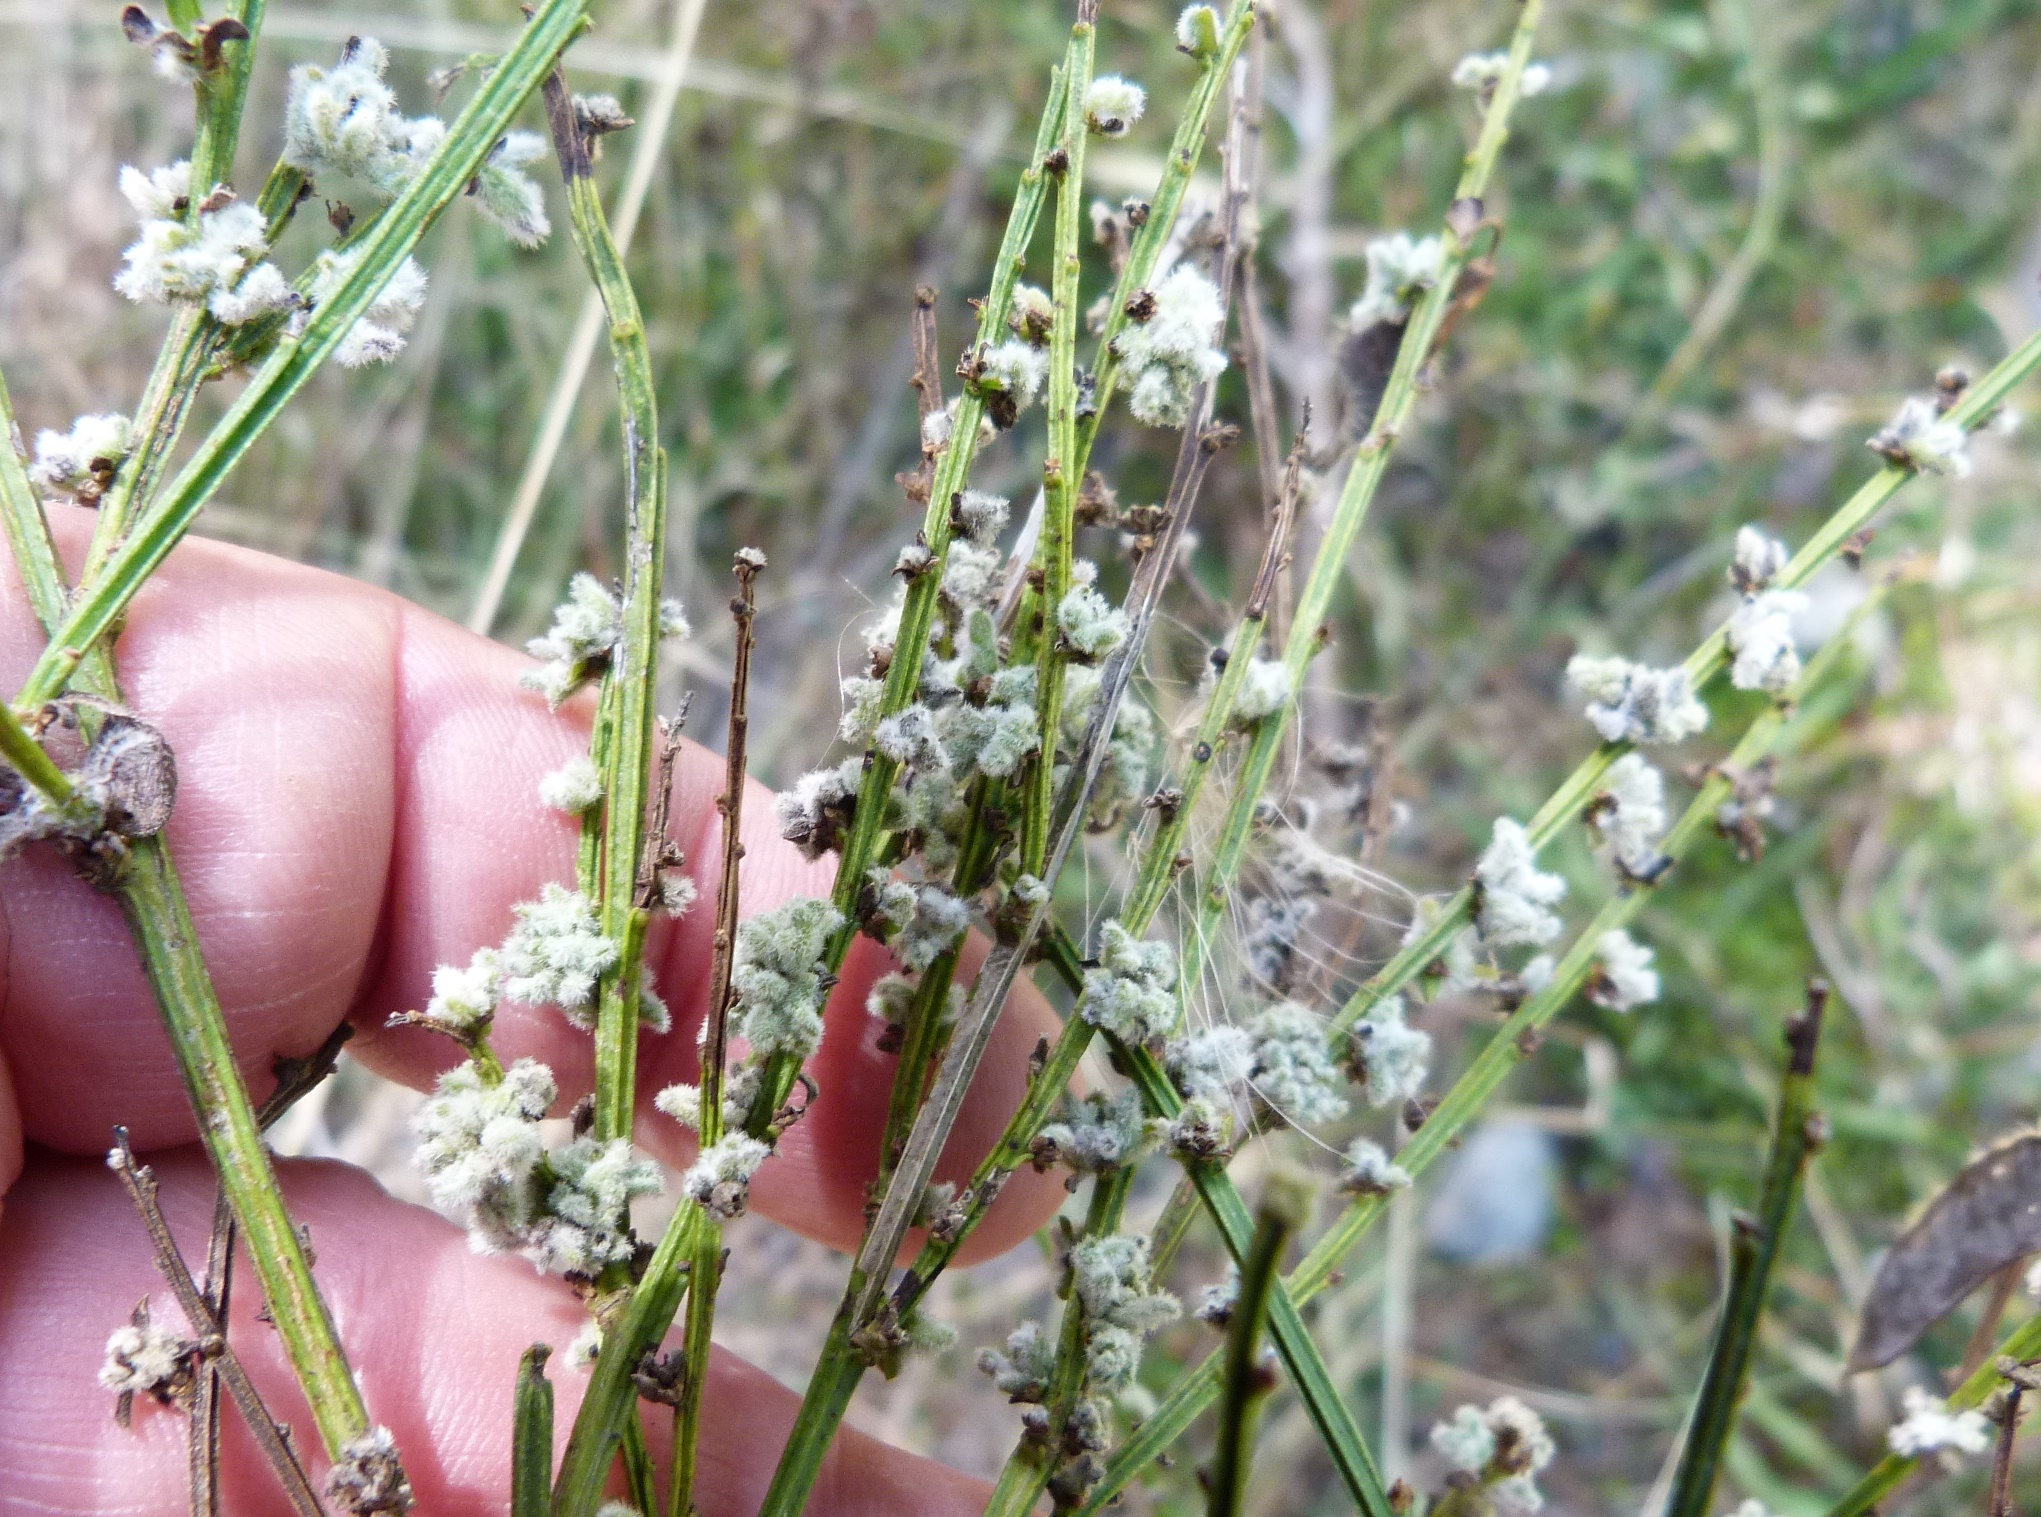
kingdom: Animalia
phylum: Arthropoda
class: Arachnida
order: Trombidiformes
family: Eriophyidae
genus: Aceria
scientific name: Aceria genistae
